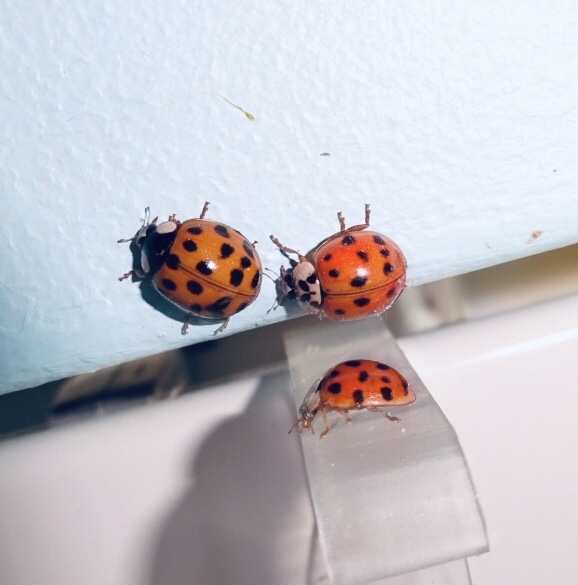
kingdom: Animalia
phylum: Arthropoda
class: Insecta
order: Coleoptera
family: Coccinellidae
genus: Harmonia
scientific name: Harmonia axyridis
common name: Harlequin ladybird
